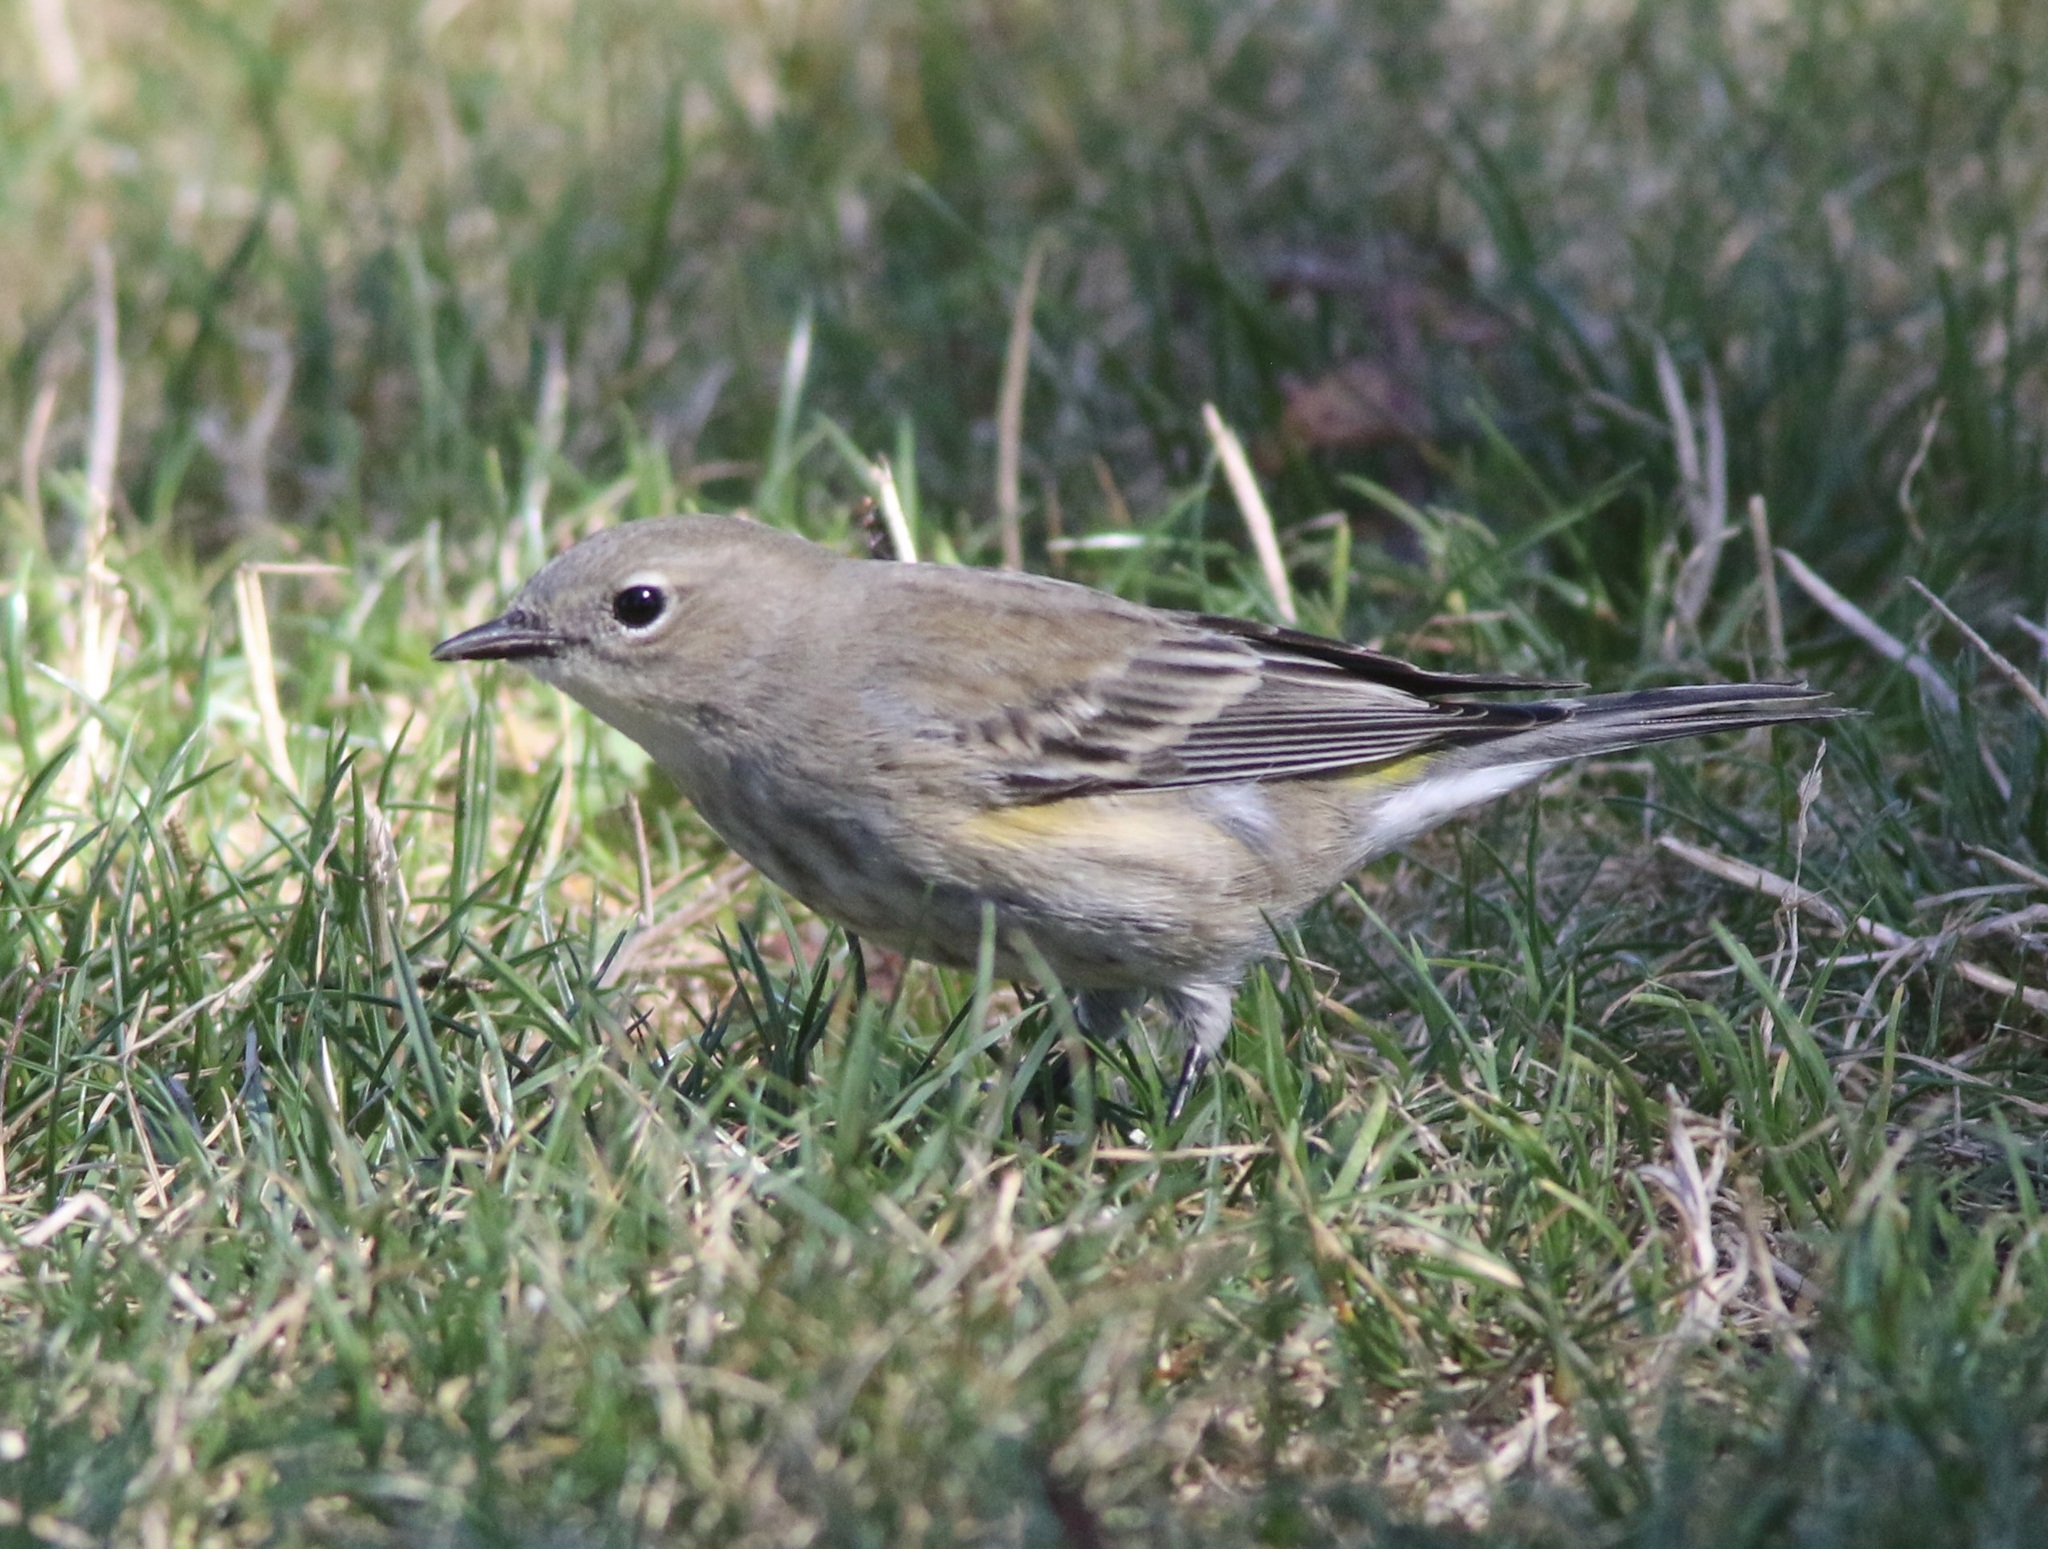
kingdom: Animalia
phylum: Chordata
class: Aves
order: Passeriformes
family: Parulidae
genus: Setophaga
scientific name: Setophaga coronata
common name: Myrtle warbler
